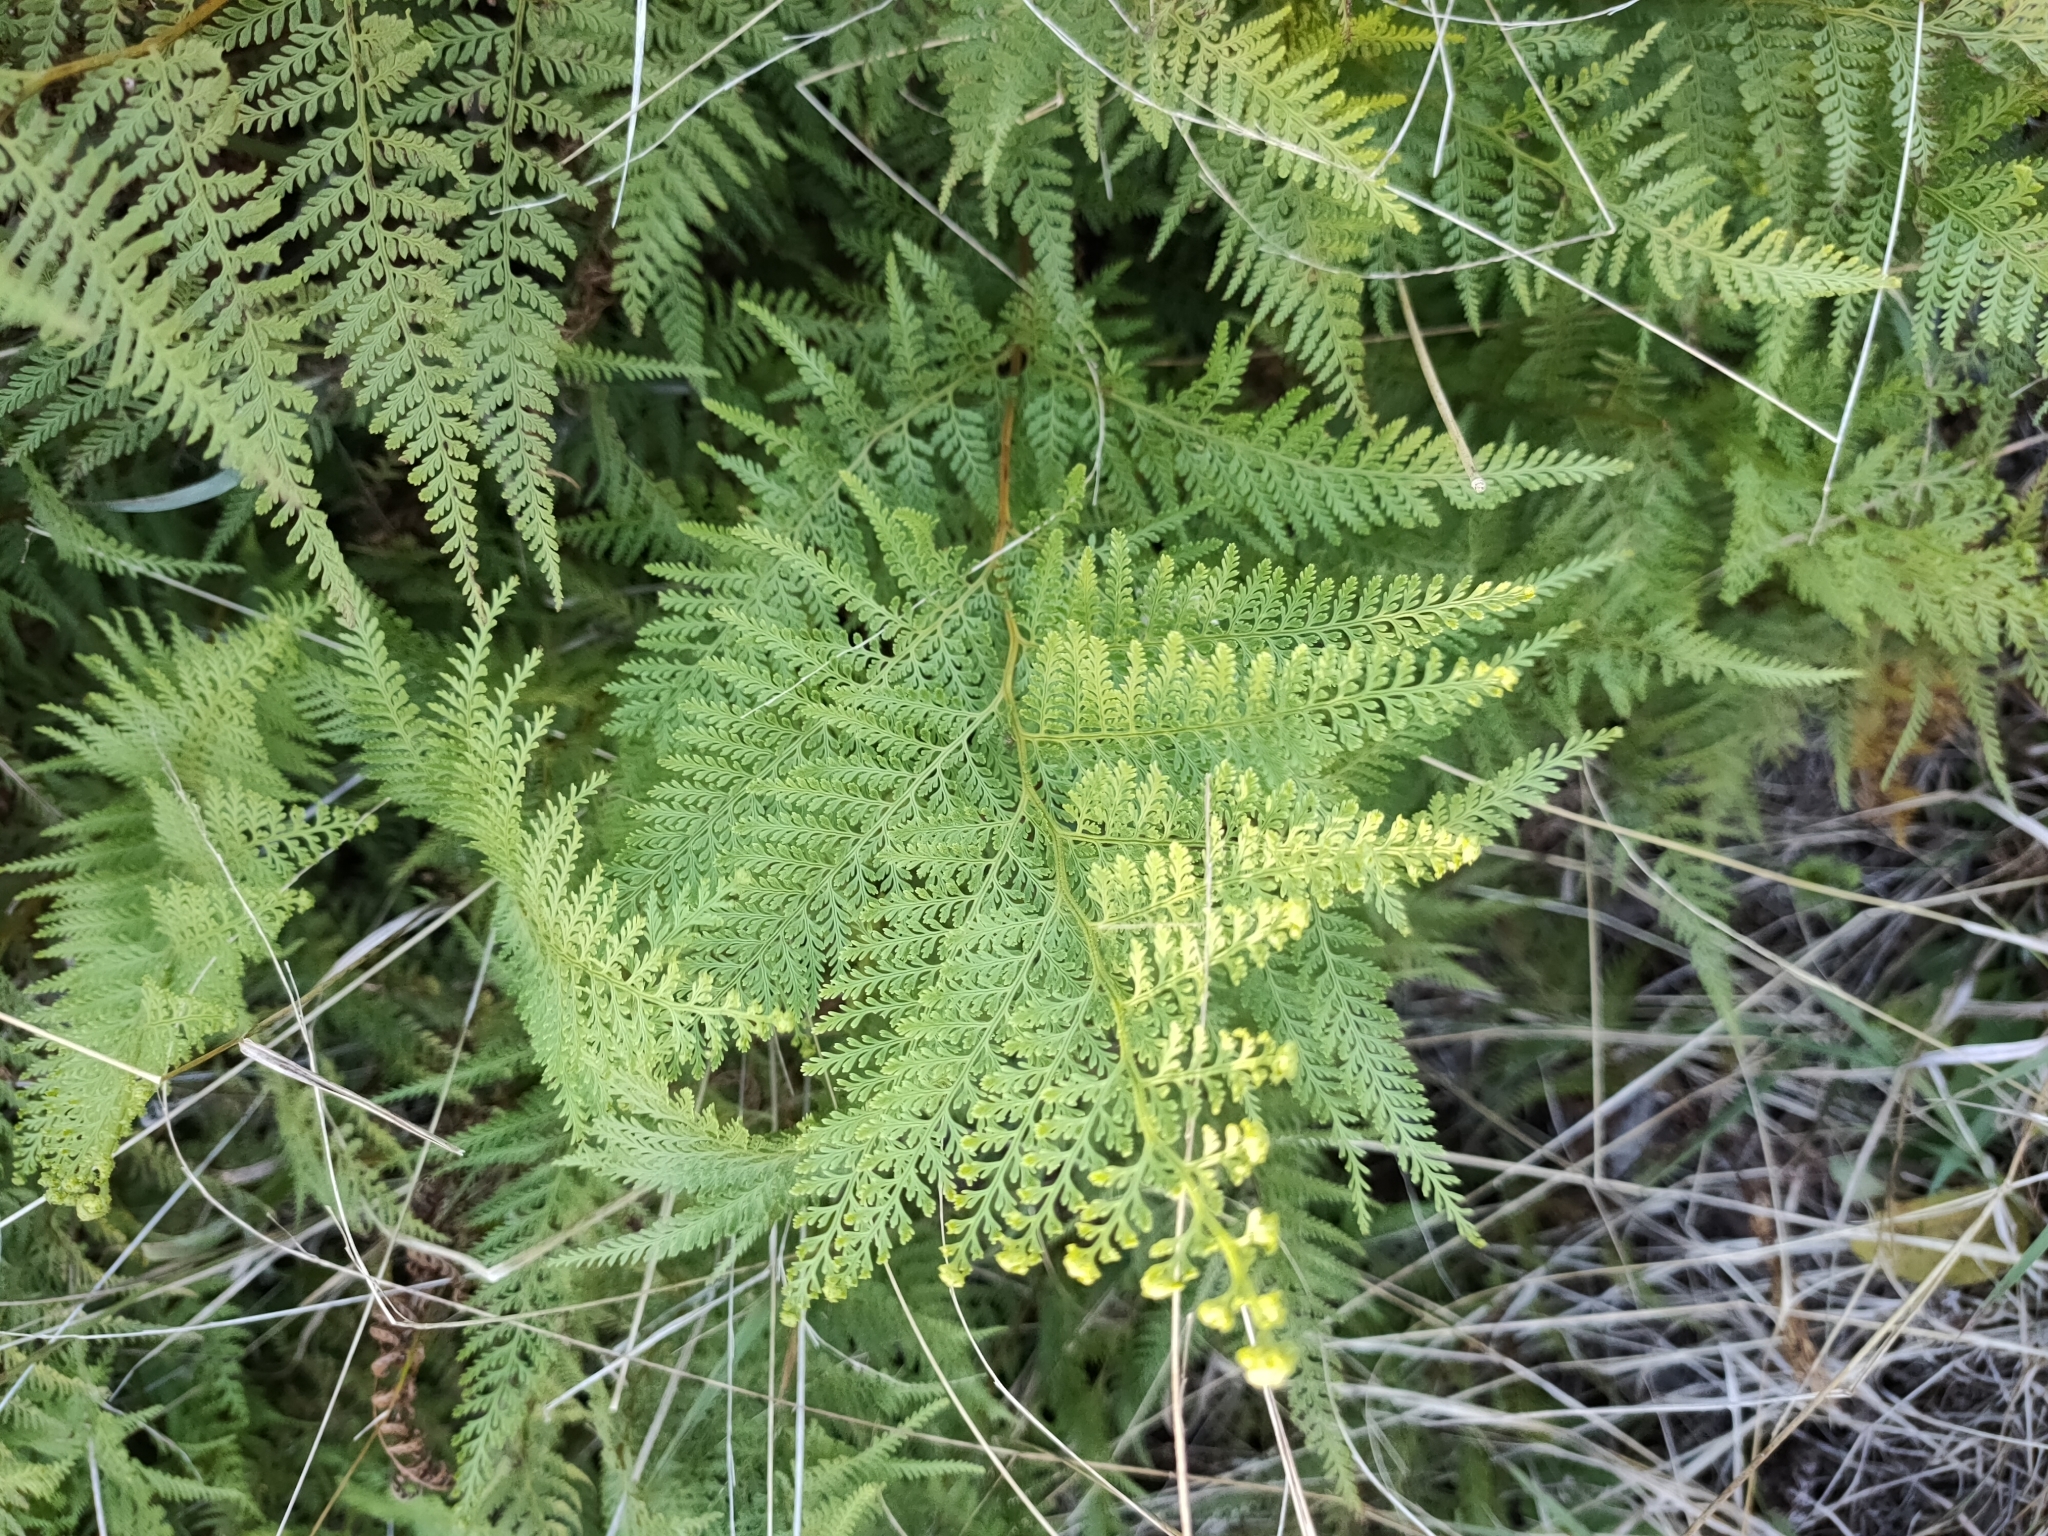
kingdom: Plantae
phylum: Tracheophyta
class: Polypodiopsida
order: Polypodiales
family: Dennstaedtiaceae
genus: Paesia
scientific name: Paesia scaberula
